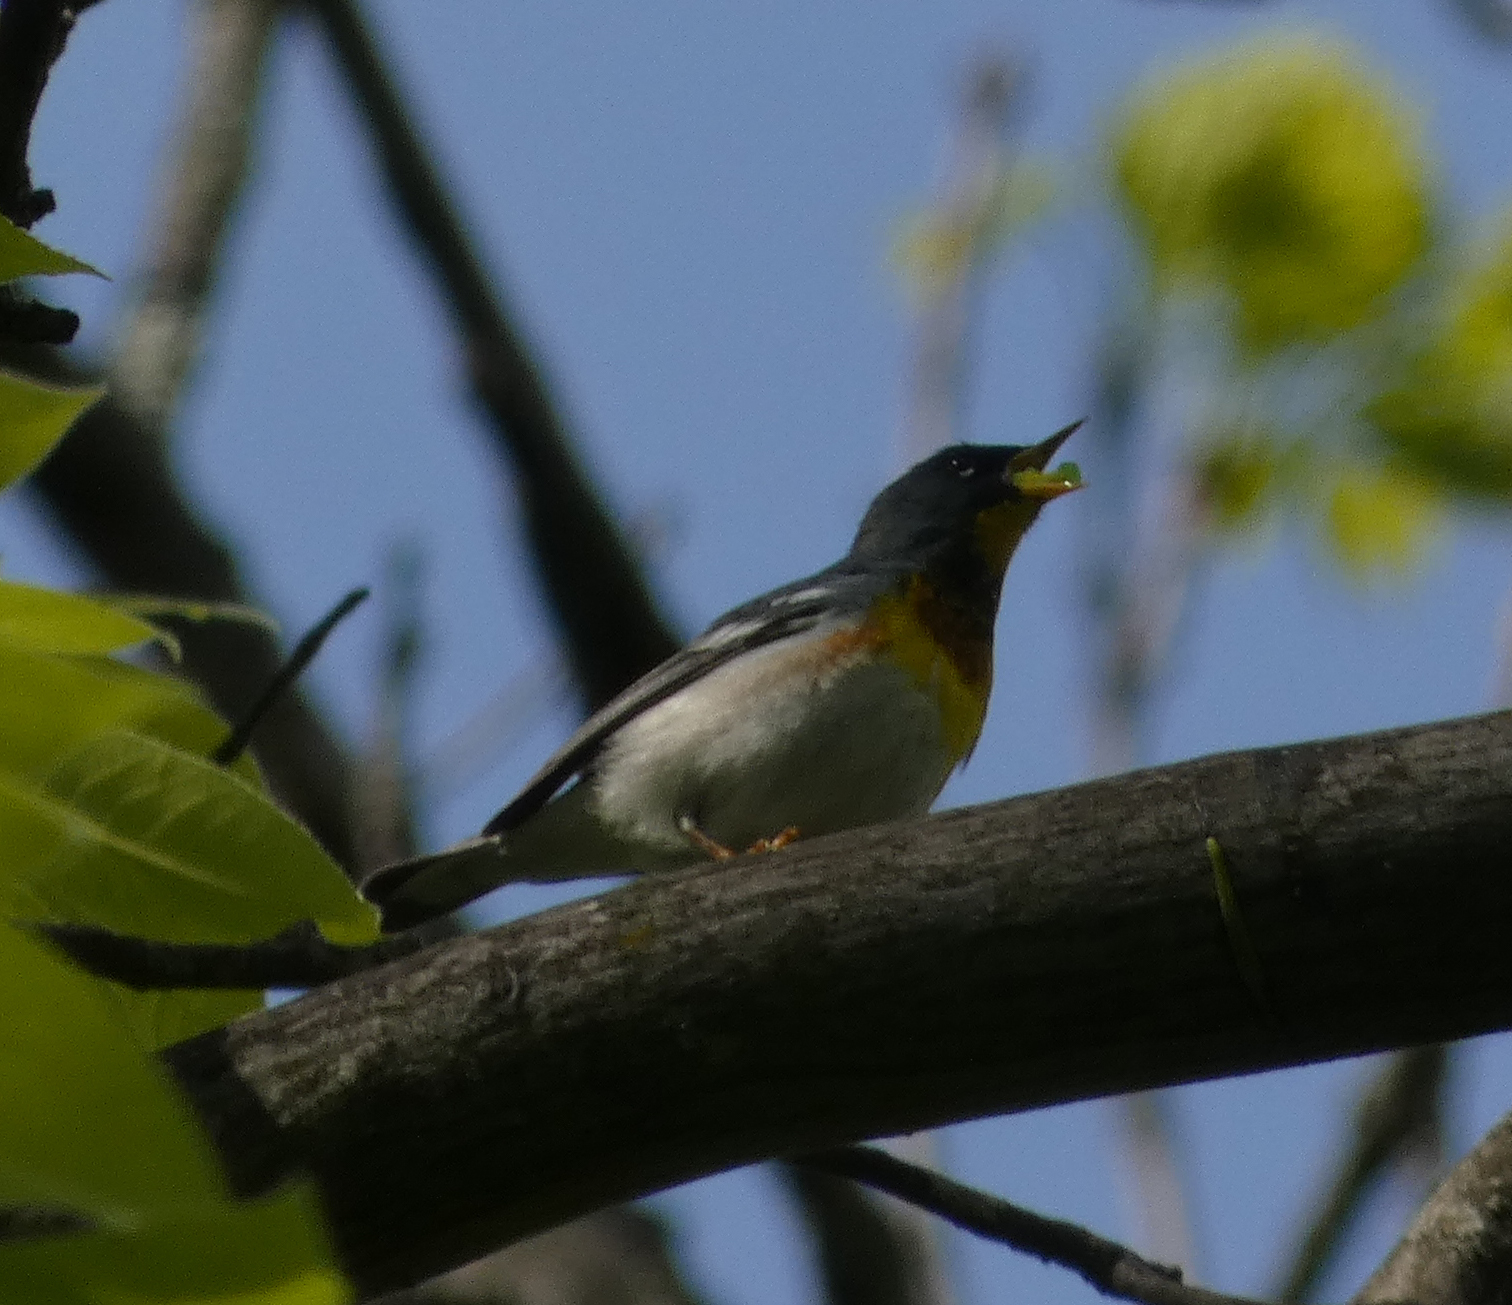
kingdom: Animalia
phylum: Chordata
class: Aves
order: Passeriformes
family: Parulidae
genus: Setophaga
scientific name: Setophaga americana
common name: Northern parula
